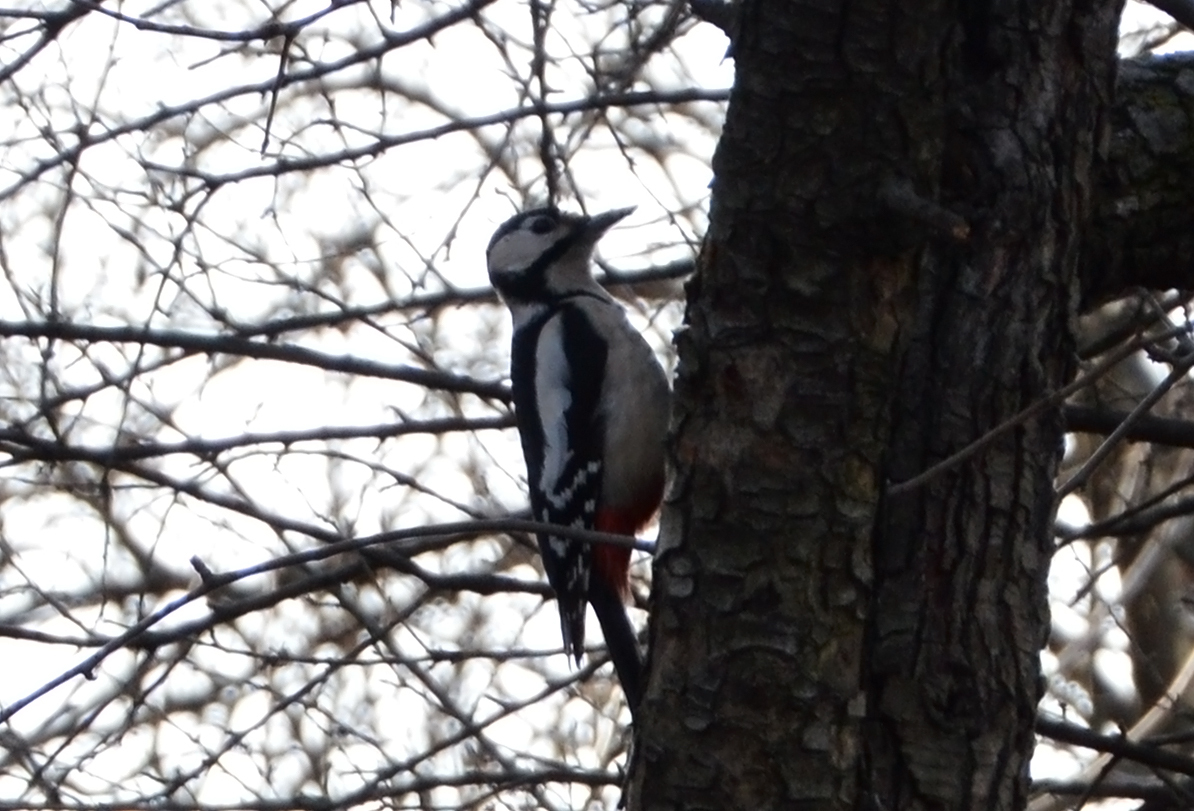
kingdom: Animalia
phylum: Chordata
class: Aves
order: Piciformes
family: Picidae
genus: Dendrocopos
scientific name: Dendrocopos major
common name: Great spotted woodpecker
